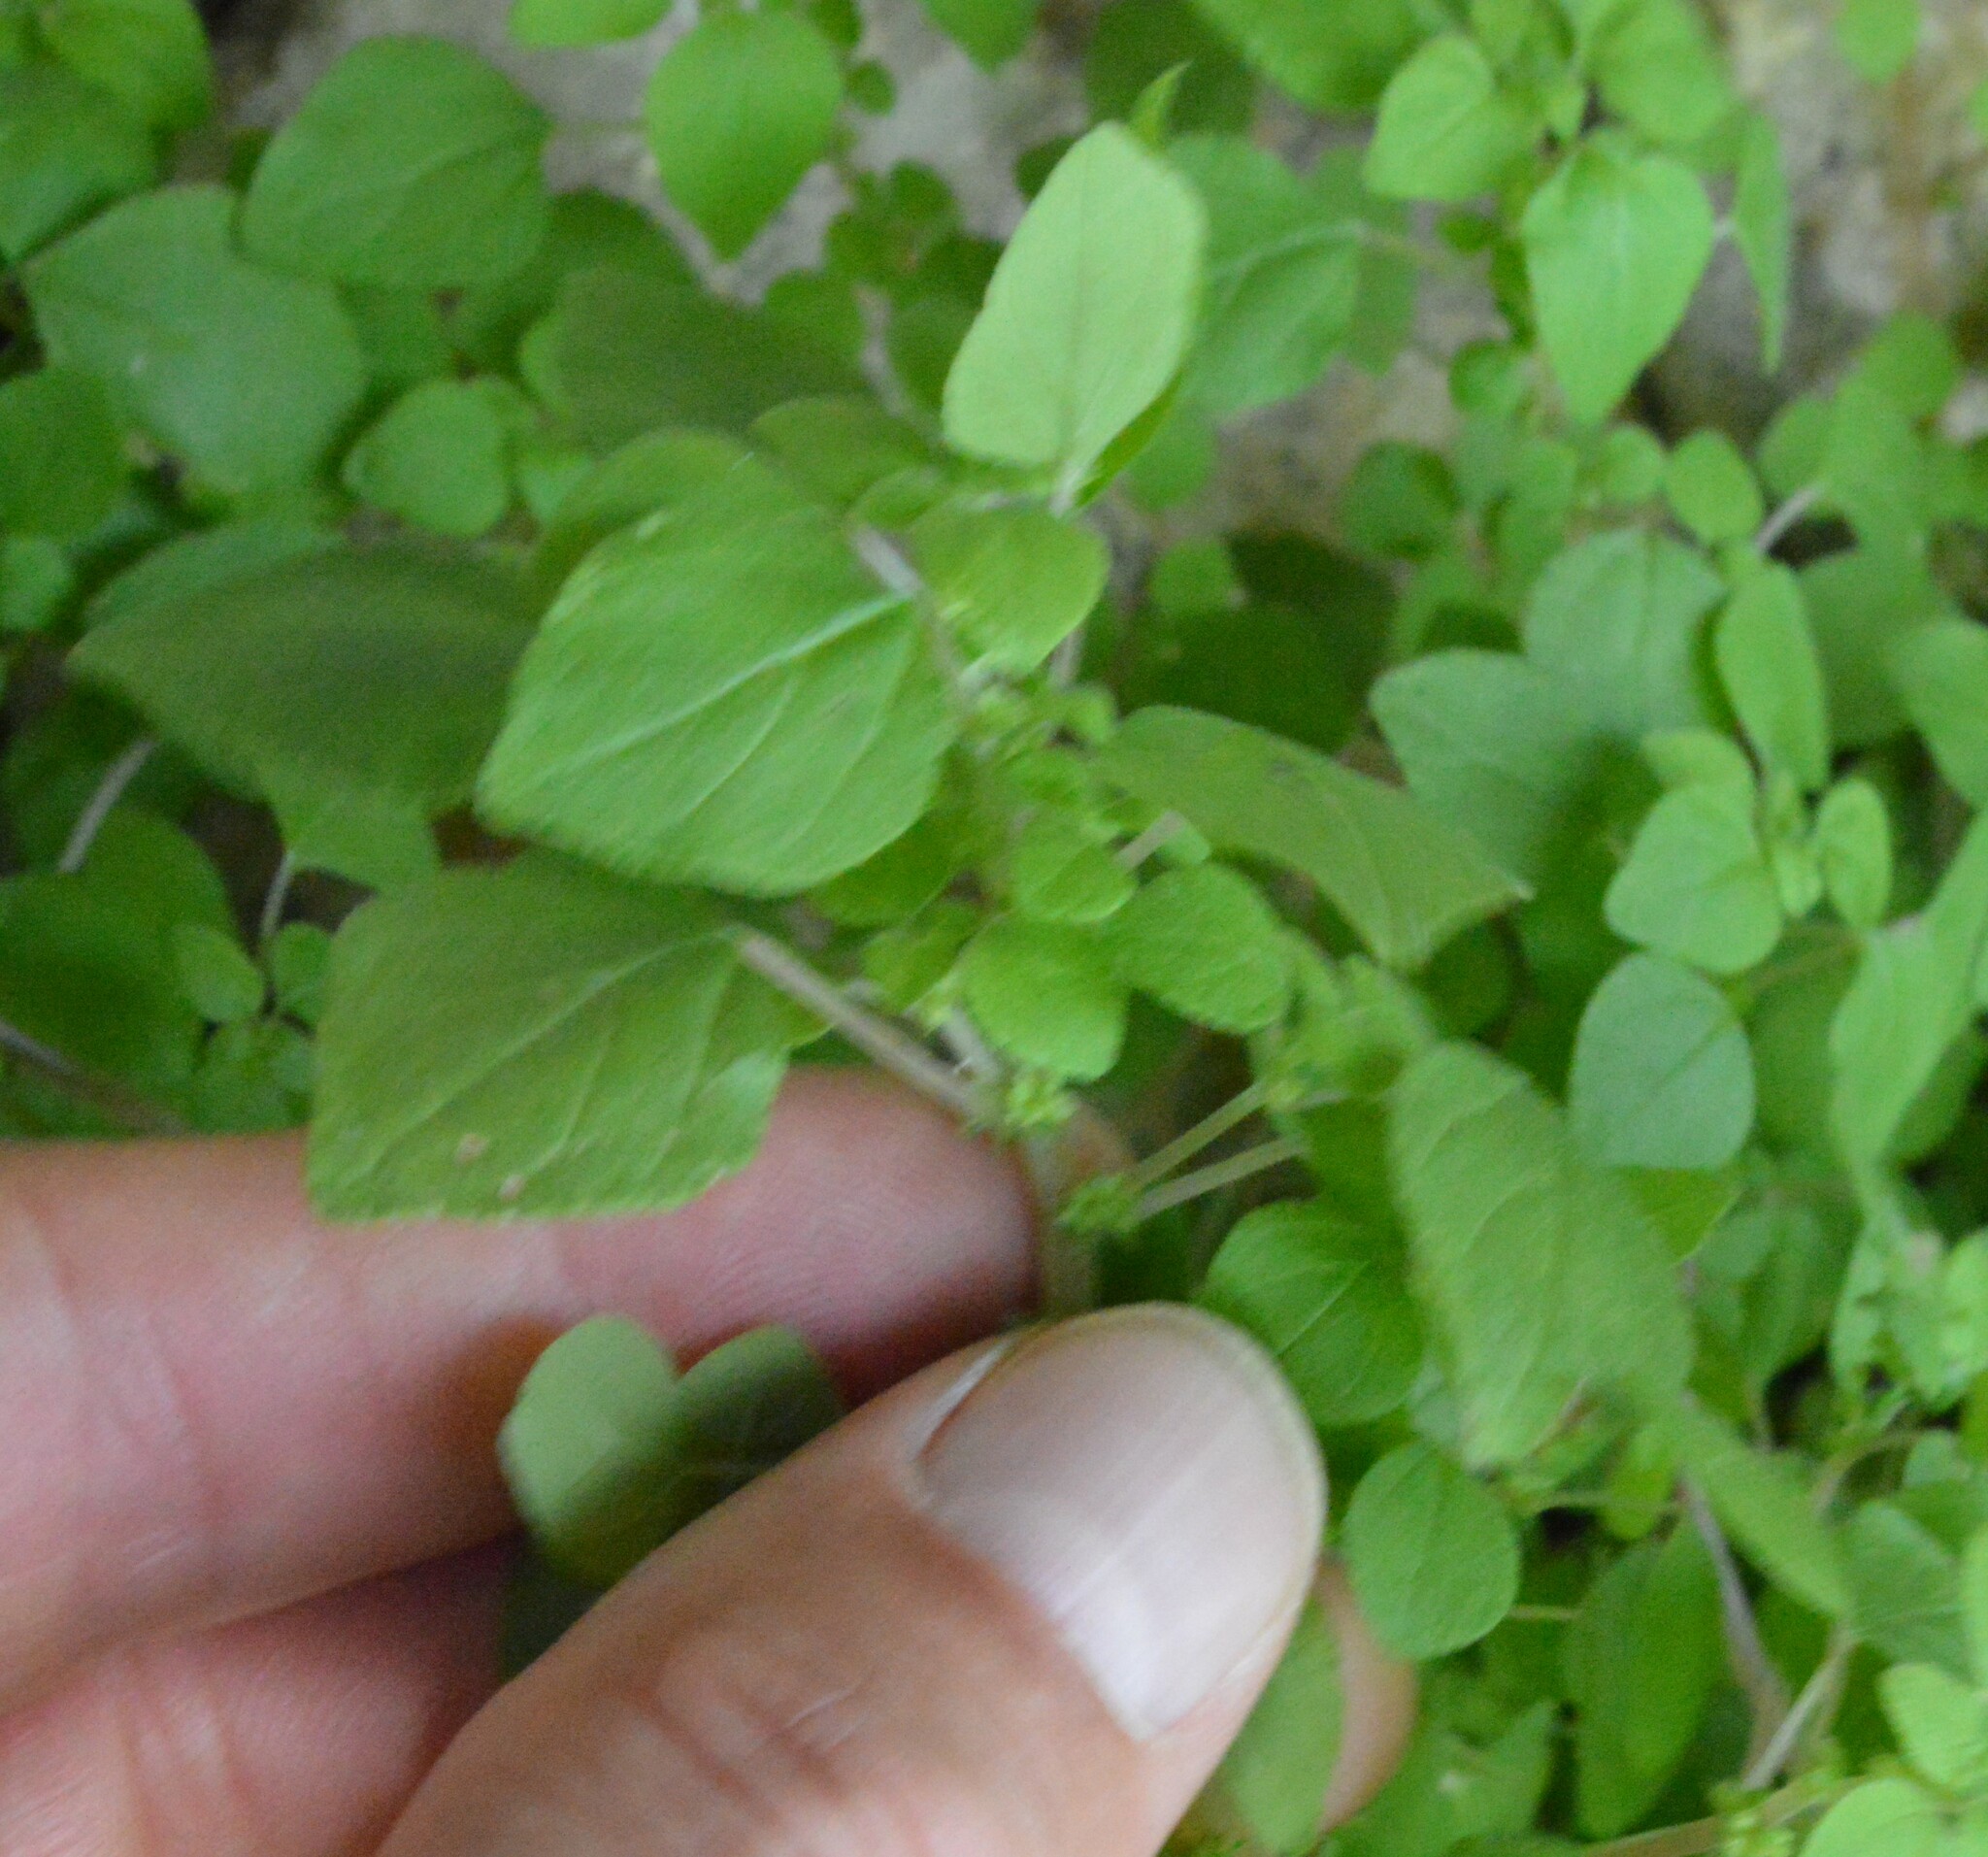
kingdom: Plantae
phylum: Tracheophyta
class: Magnoliopsida
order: Rosales
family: Urticaceae
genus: Parietaria
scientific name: Parietaria floridana
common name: Florida pellitory
